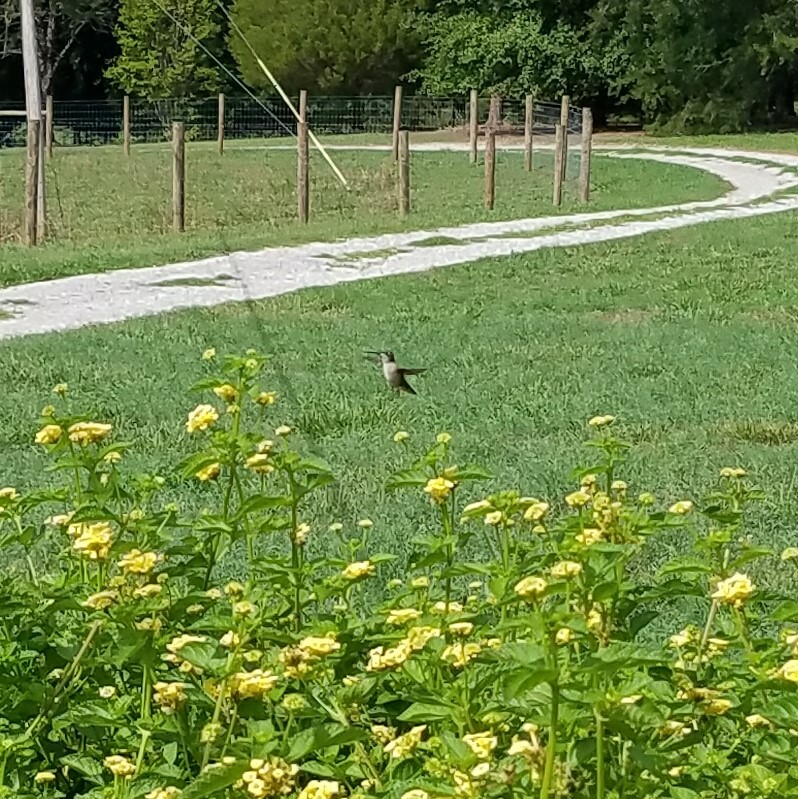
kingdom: Animalia
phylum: Chordata
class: Aves
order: Apodiformes
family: Trochilidae
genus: Archilochus
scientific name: Archilochus colubris
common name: Ruby-throated hummingbird
